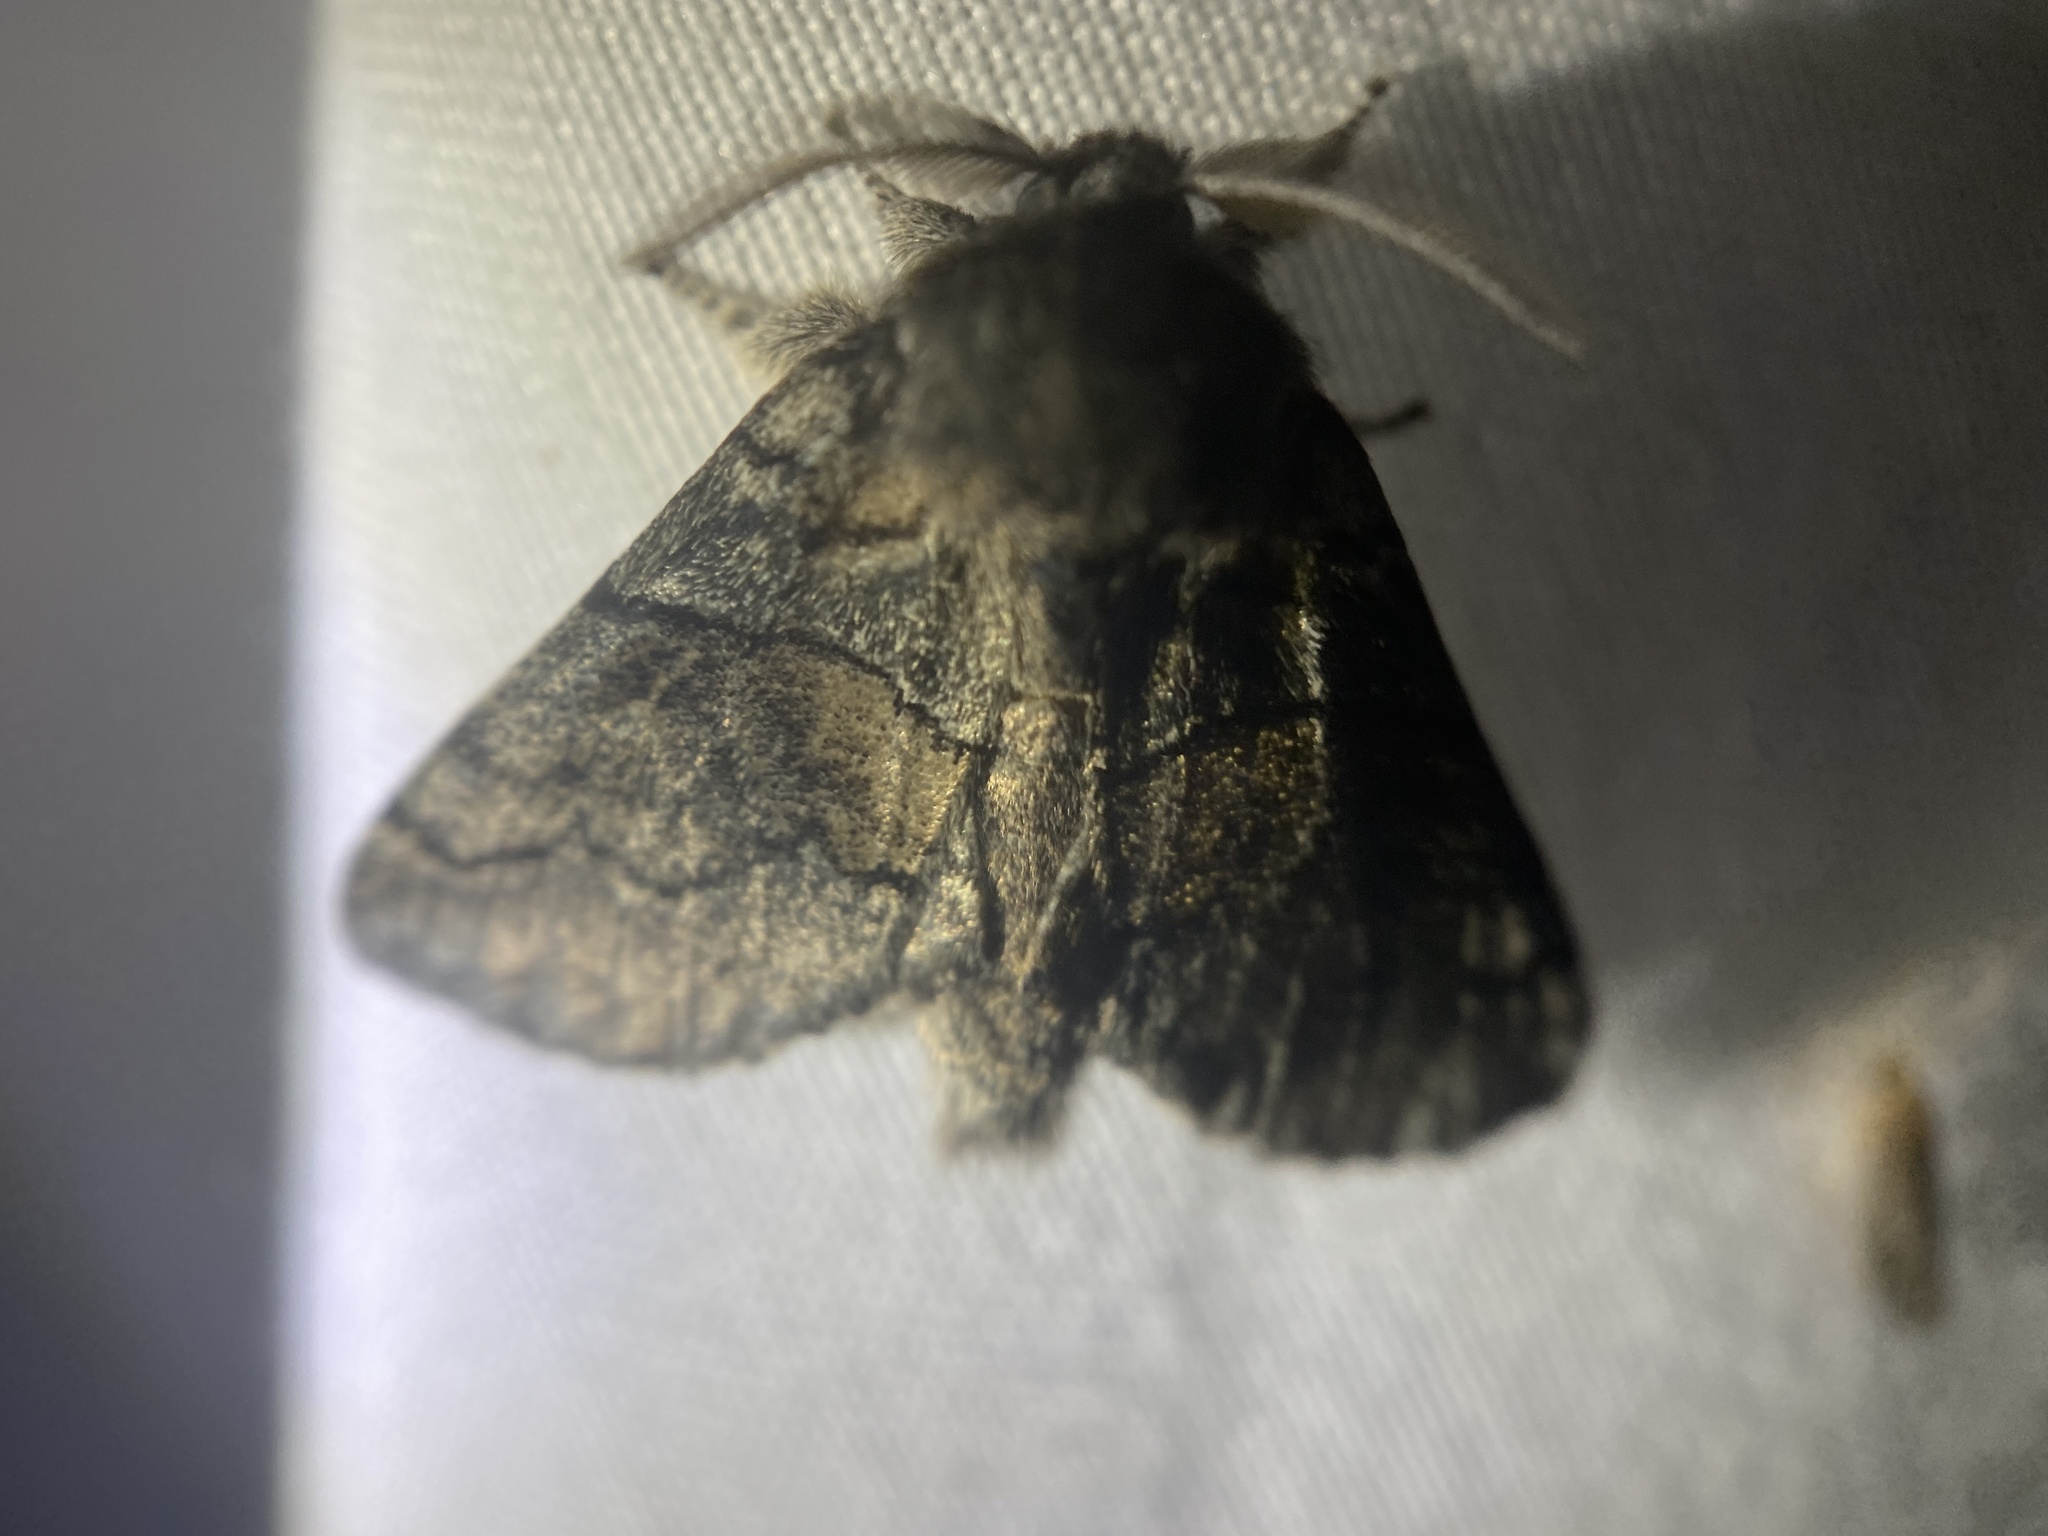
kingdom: Animalia
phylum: Arthropoda
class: Insecta
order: Lepidoptera
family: Notodontidae
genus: Gluphisia
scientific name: Gluphisia septentrionis
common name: Common gluphisia
